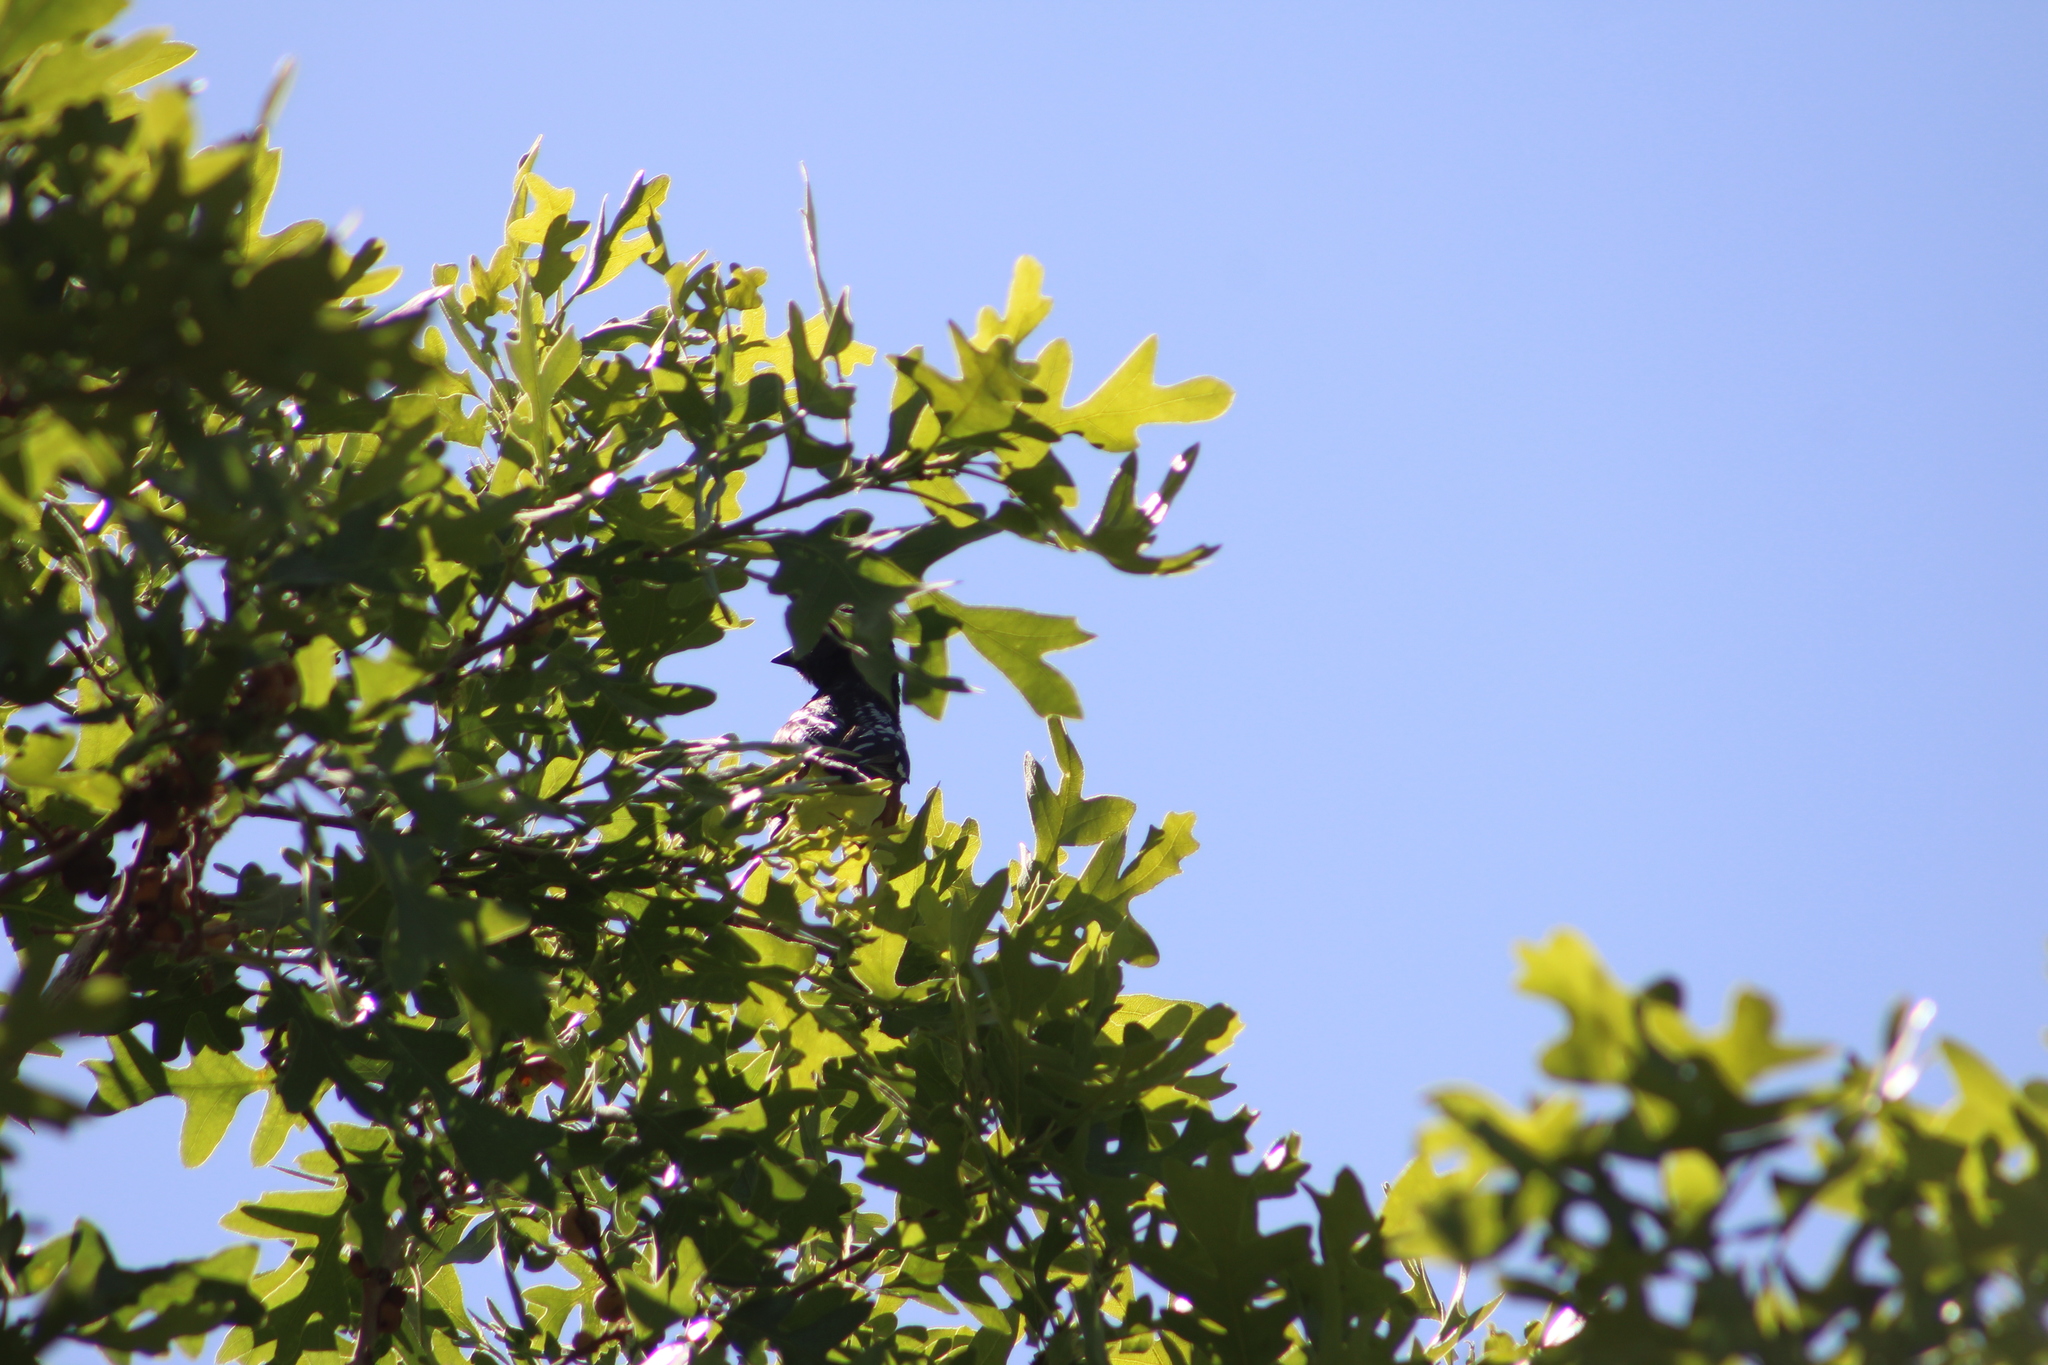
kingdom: Animalia
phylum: Chordata
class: Aves
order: Passeriformes
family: Passerellidae
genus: Pipilo
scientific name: Pipilo maculatus
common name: Spotted towhee
